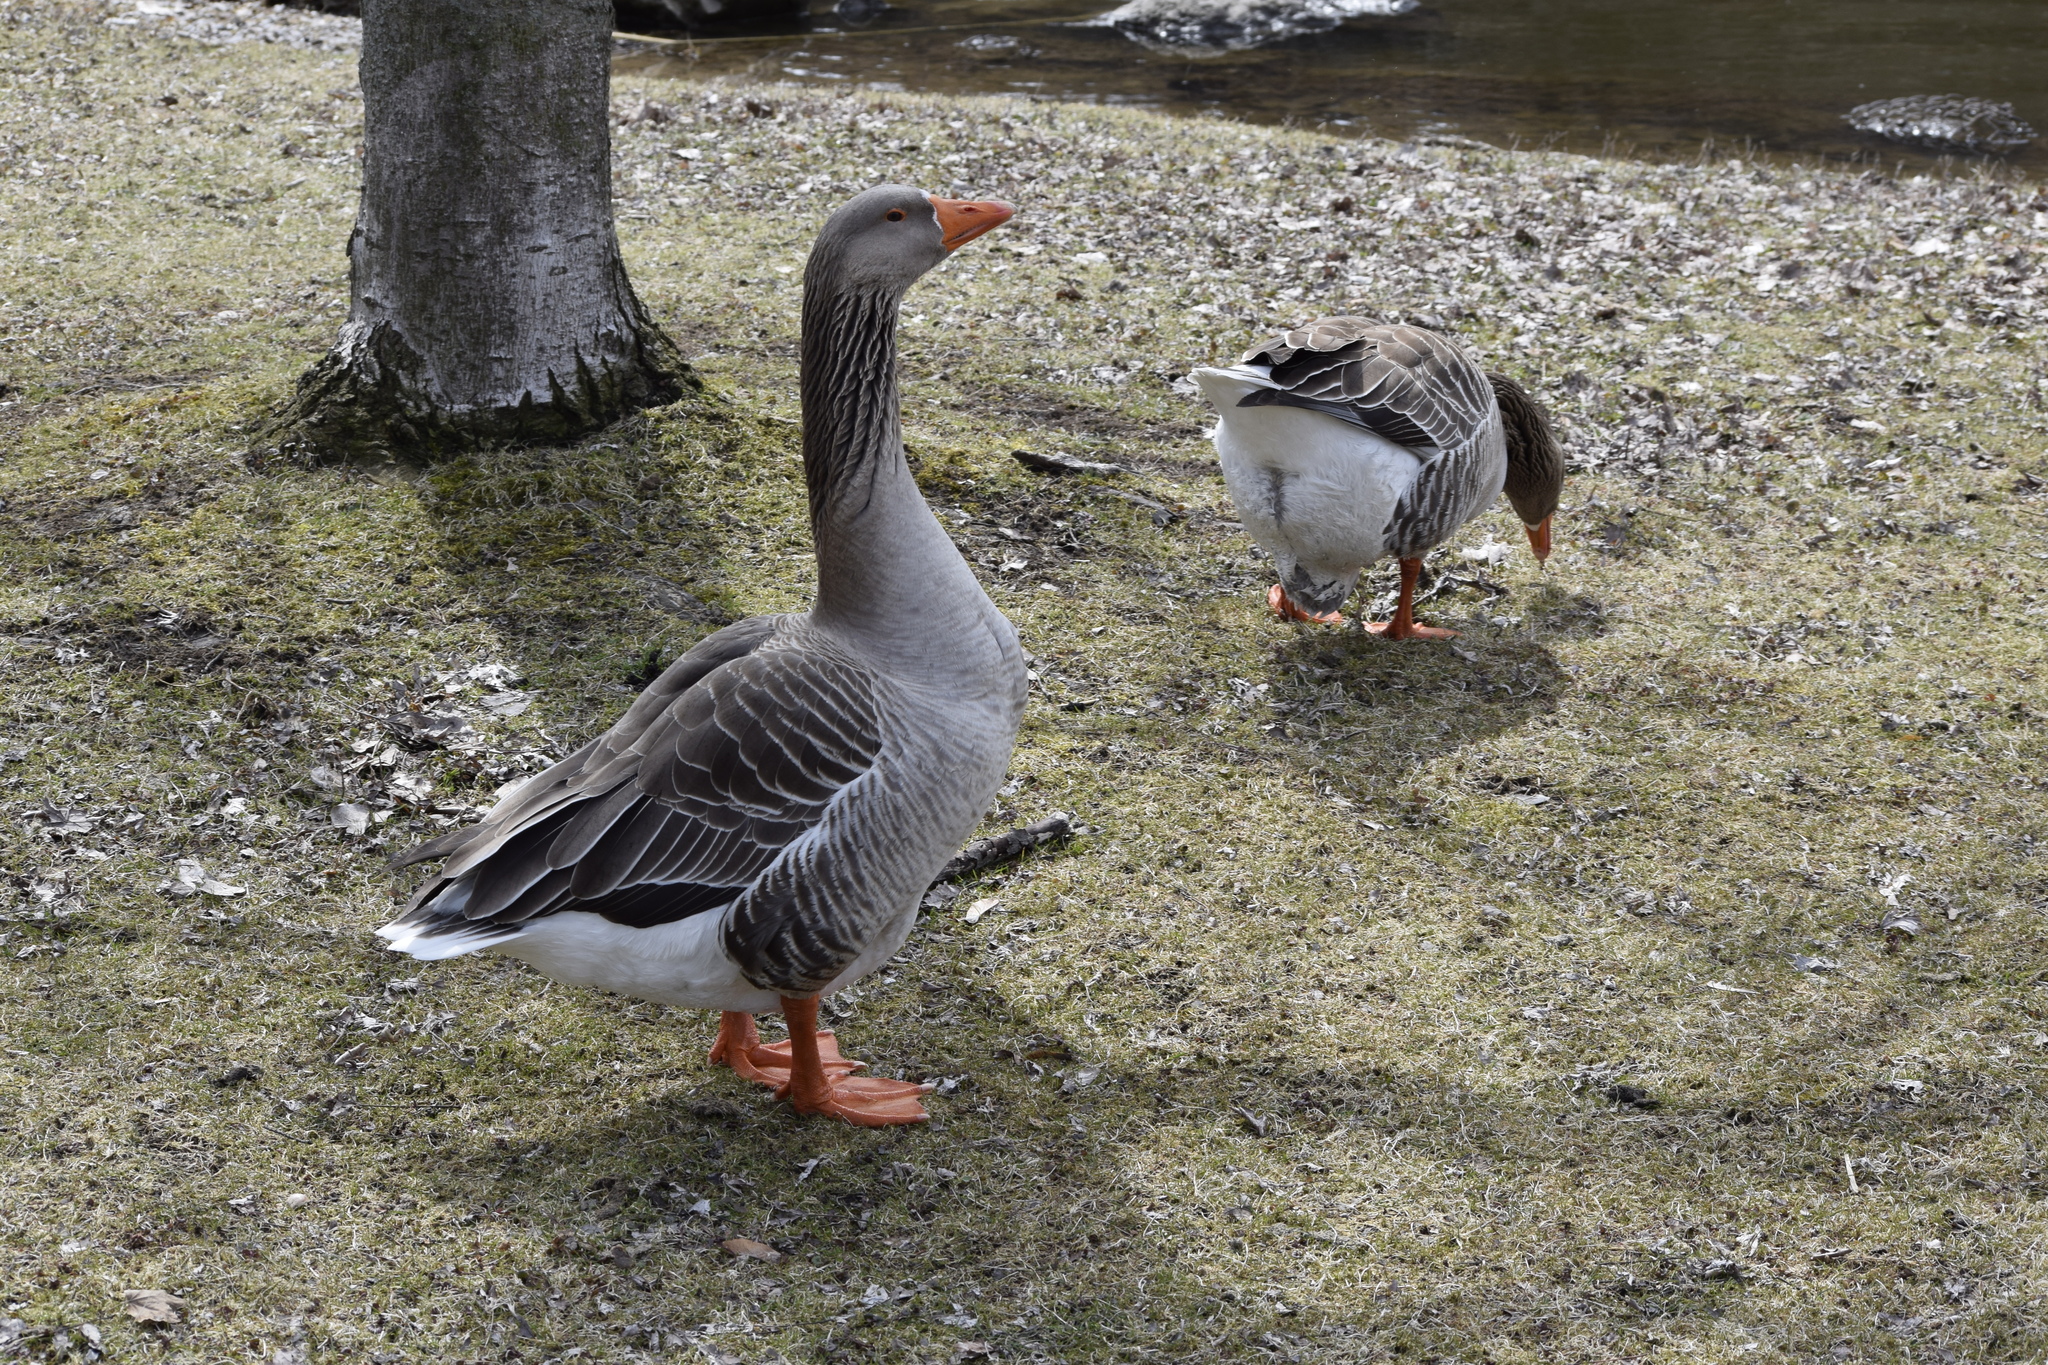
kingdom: Animalia
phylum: Chordata
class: Aves
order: Anseriformes
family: Anatidae
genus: Anser
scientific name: Anser anser
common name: Greylag goose
